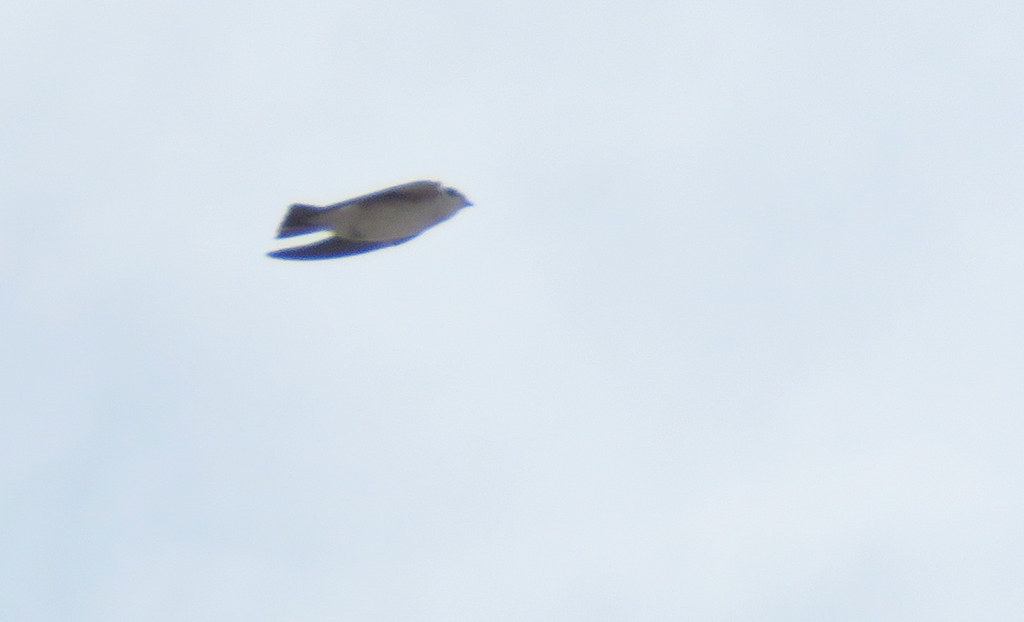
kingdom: Animalia
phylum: Chordata
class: Aves
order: Passeriformes
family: Hirundinidae
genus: Tachycineta
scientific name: Tachycineta leucorrhoa
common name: White-rumped swallow
